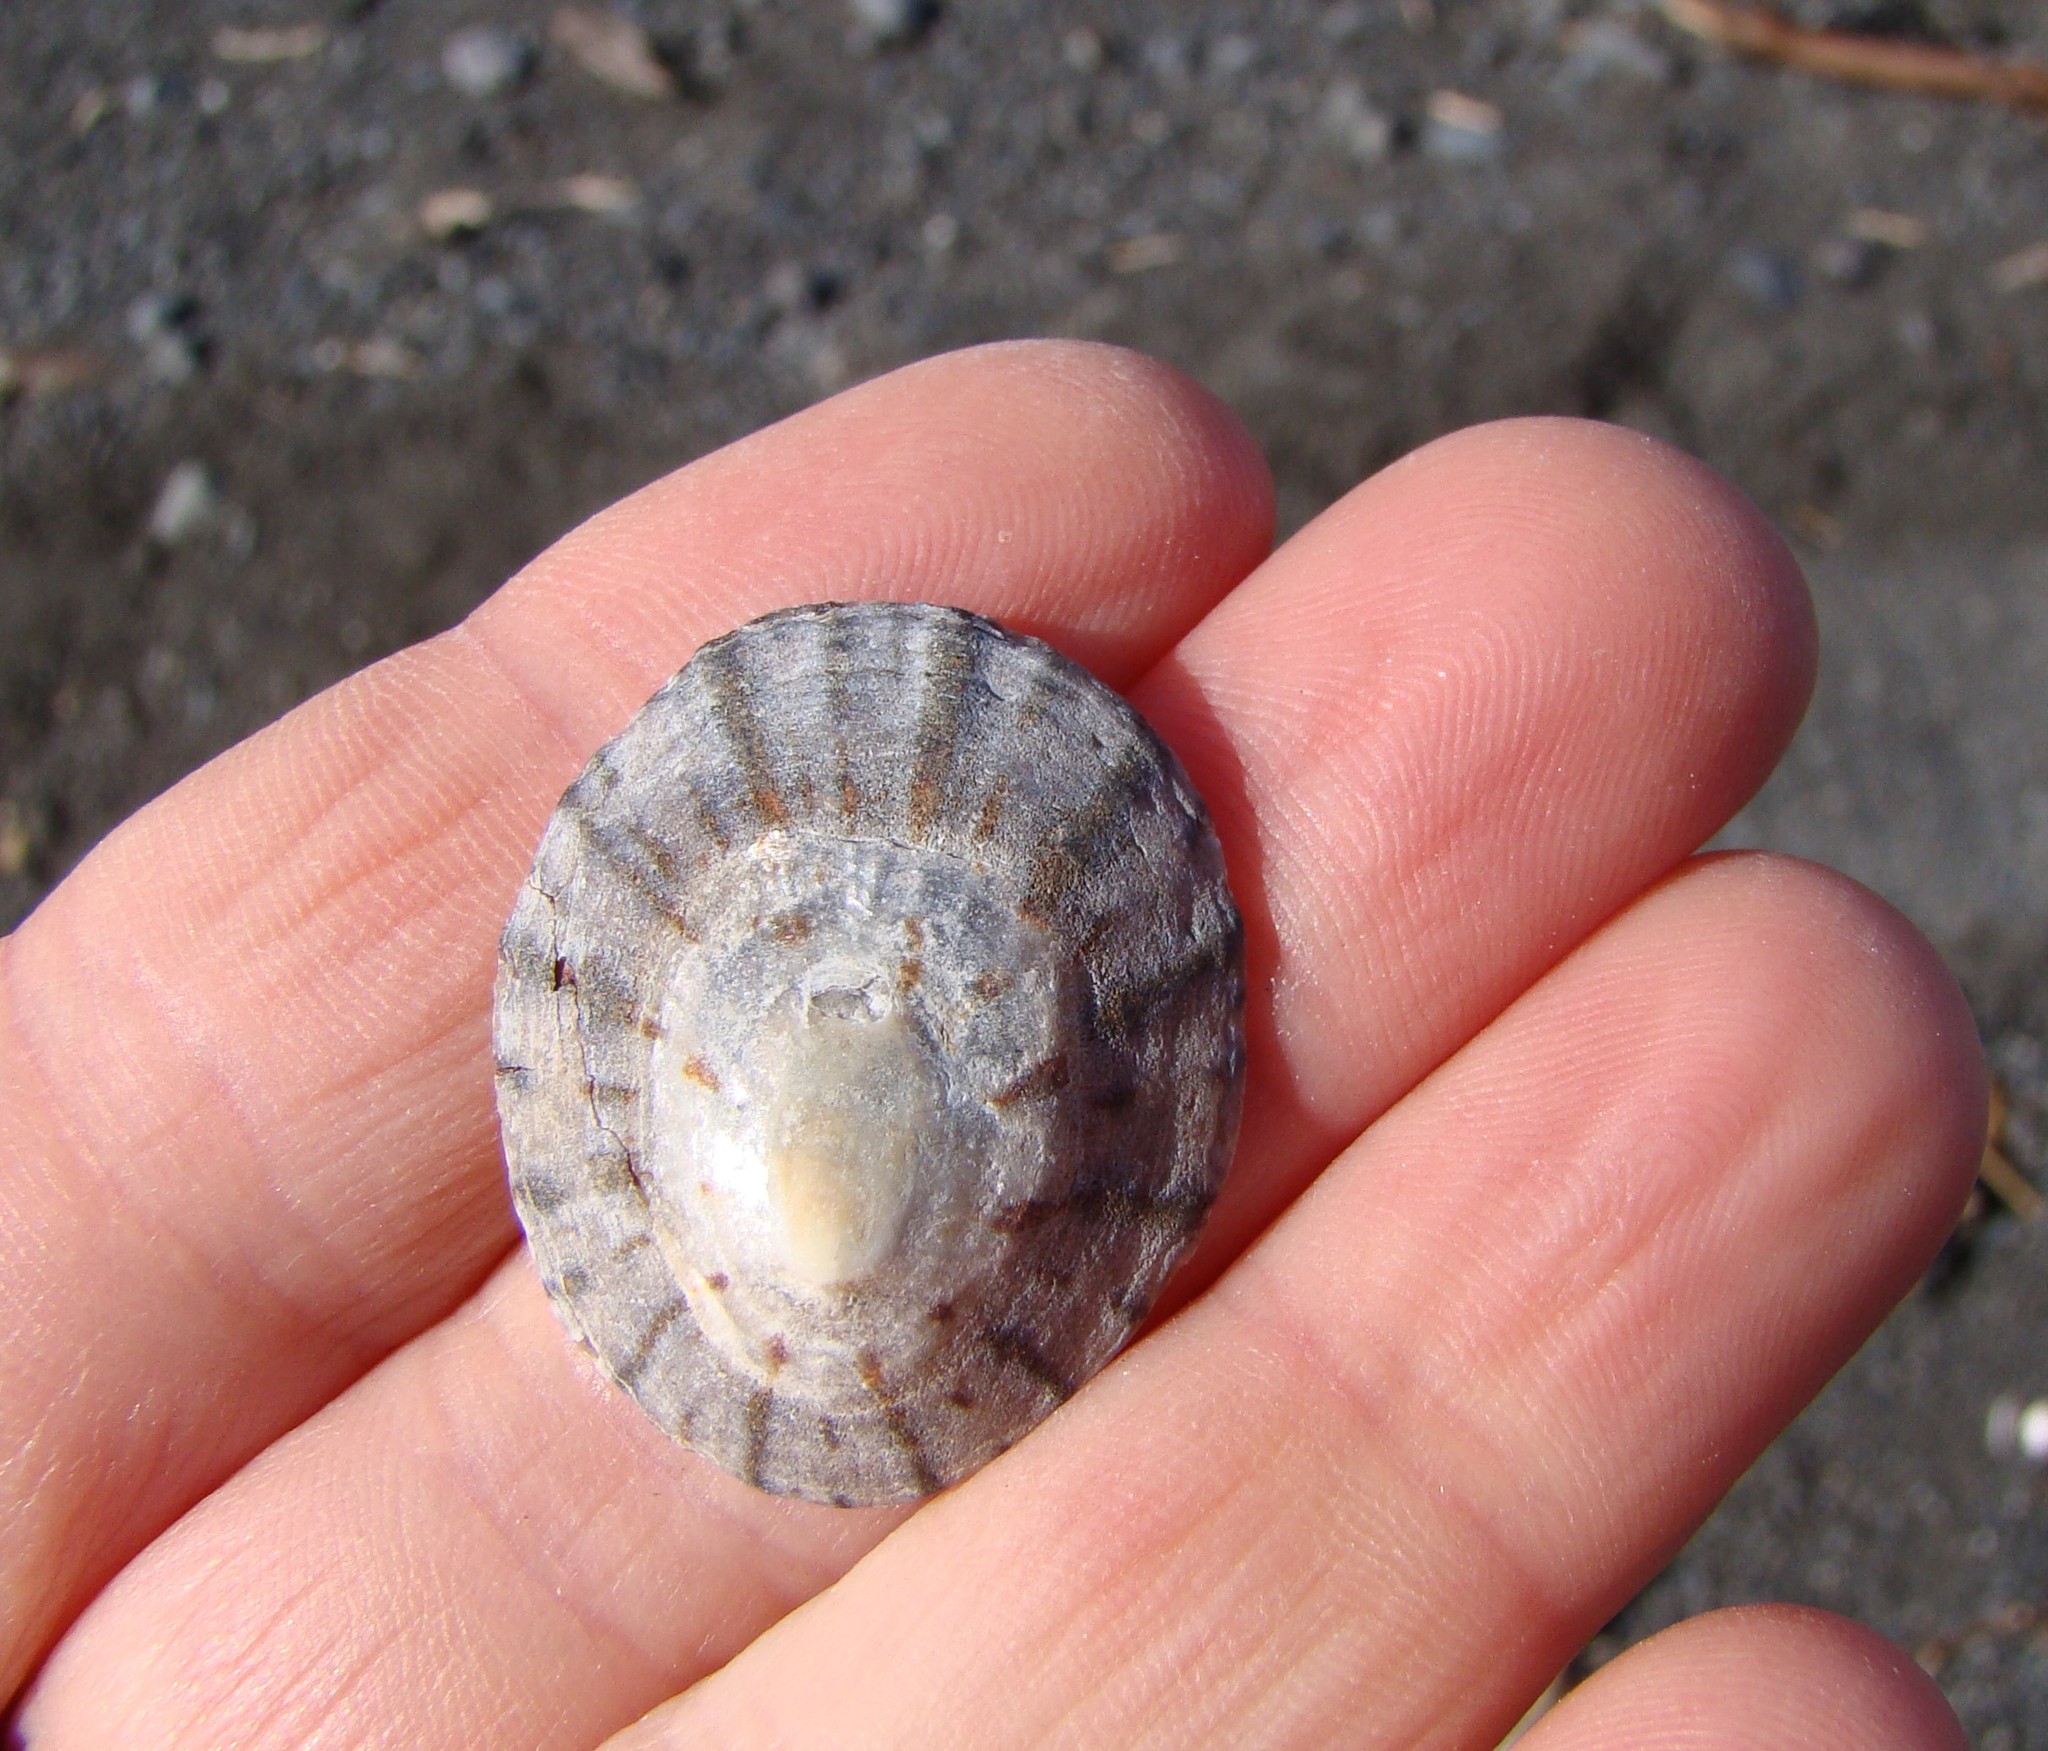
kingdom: Animalia
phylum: Mollusca
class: Gastropoda
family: Nacellidae
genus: Cellana
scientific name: Cellana radians
